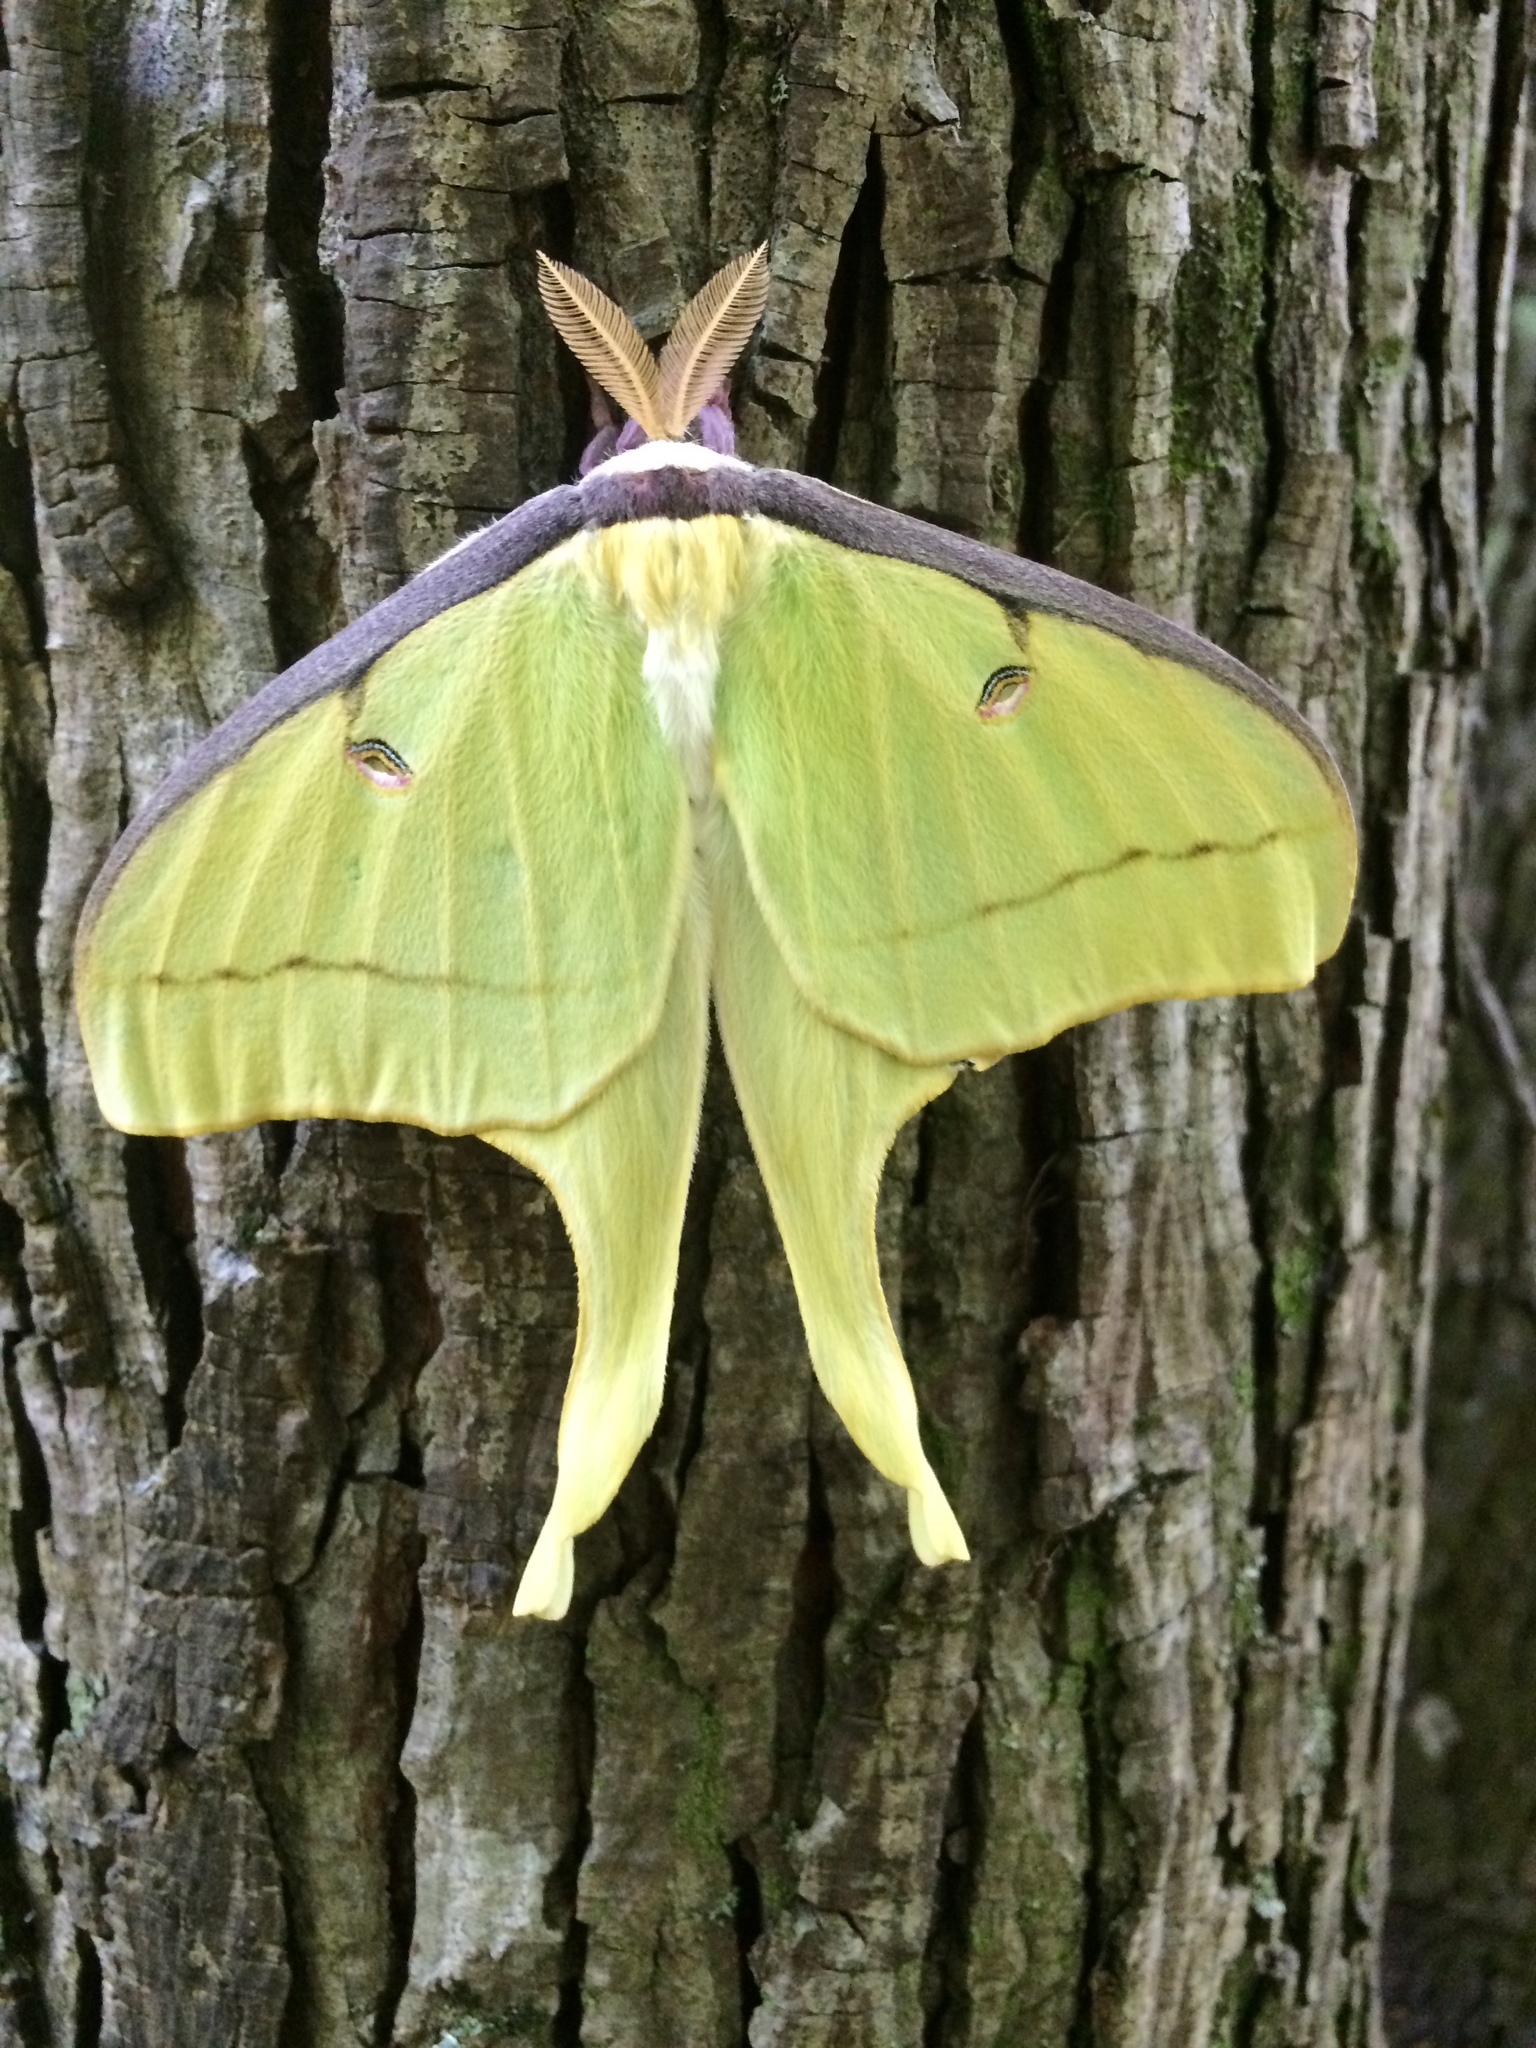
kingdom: Animalia
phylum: Arthropoda
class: Insecta
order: Lepidoptera
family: Saturniidae
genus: Actias
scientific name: Actias luna
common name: Luna moth
